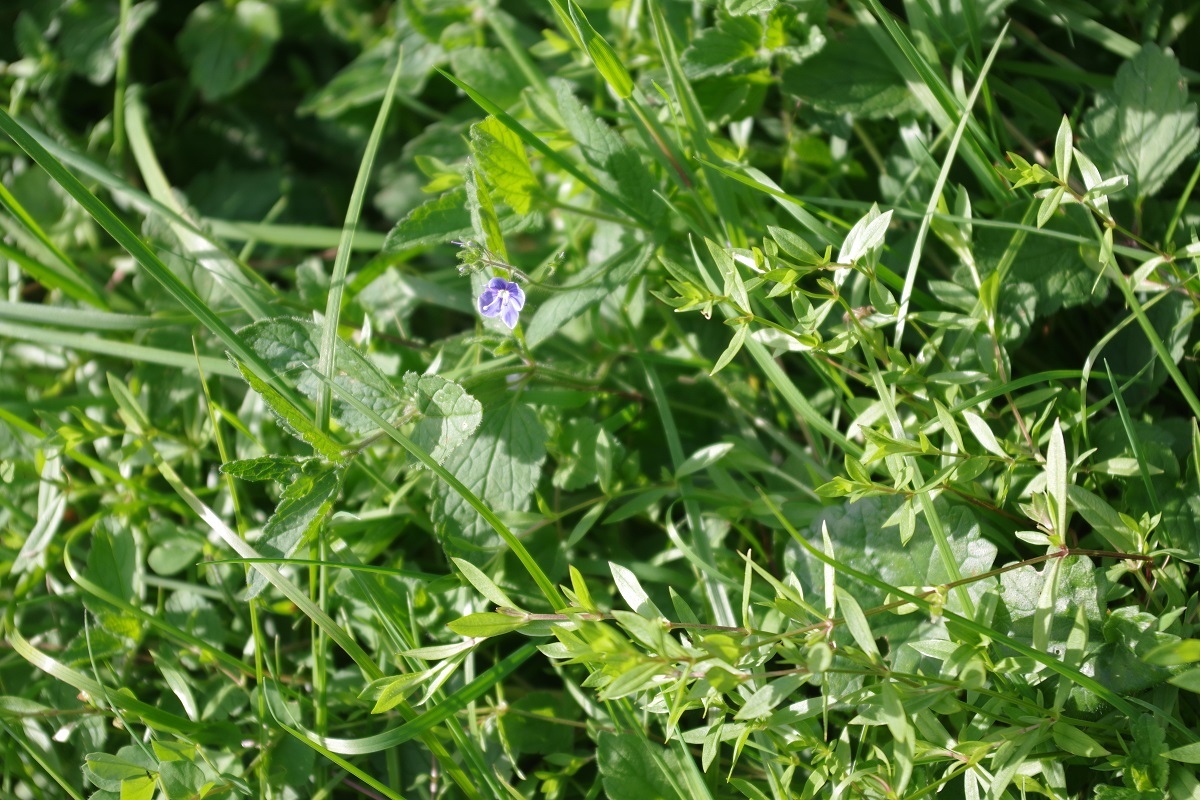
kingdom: Plantae
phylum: Tracheophyta
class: Magnoliopsida
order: Lamiales
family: Plantaginaceae
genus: Veronica
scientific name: Veronica chamaedrys
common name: Germander speedwell
